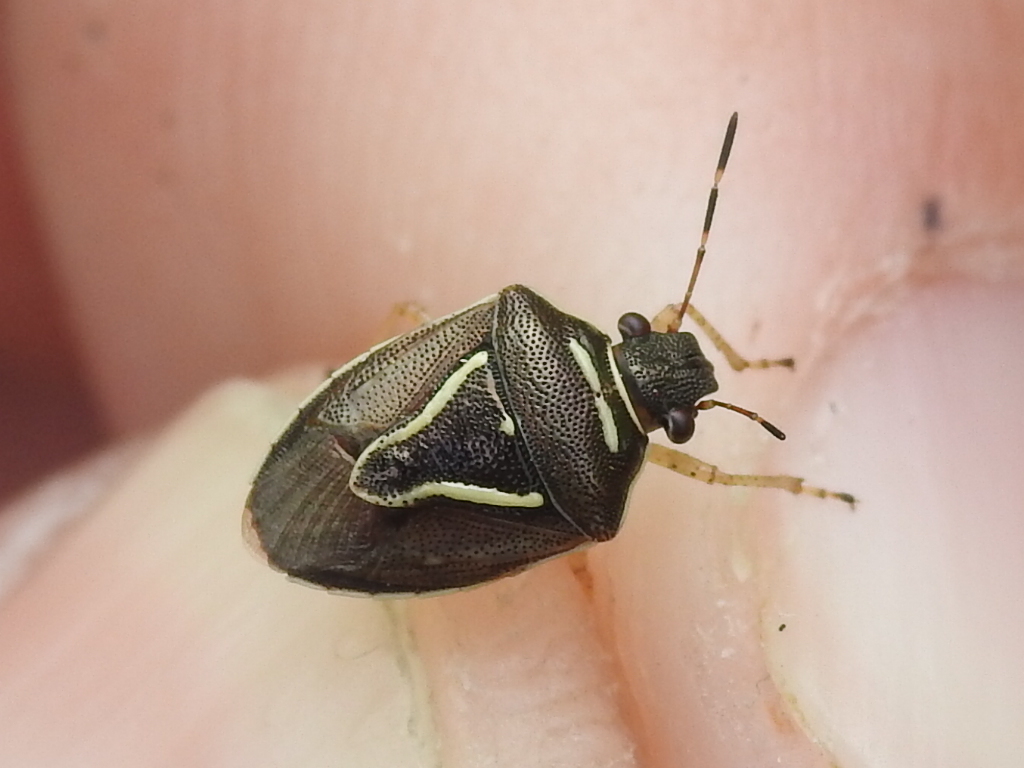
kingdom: Animalia
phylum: Arthropoda
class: Insecta
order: Hemiptera
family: Pentatomidae
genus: Mormidea
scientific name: Mormidea lugens
